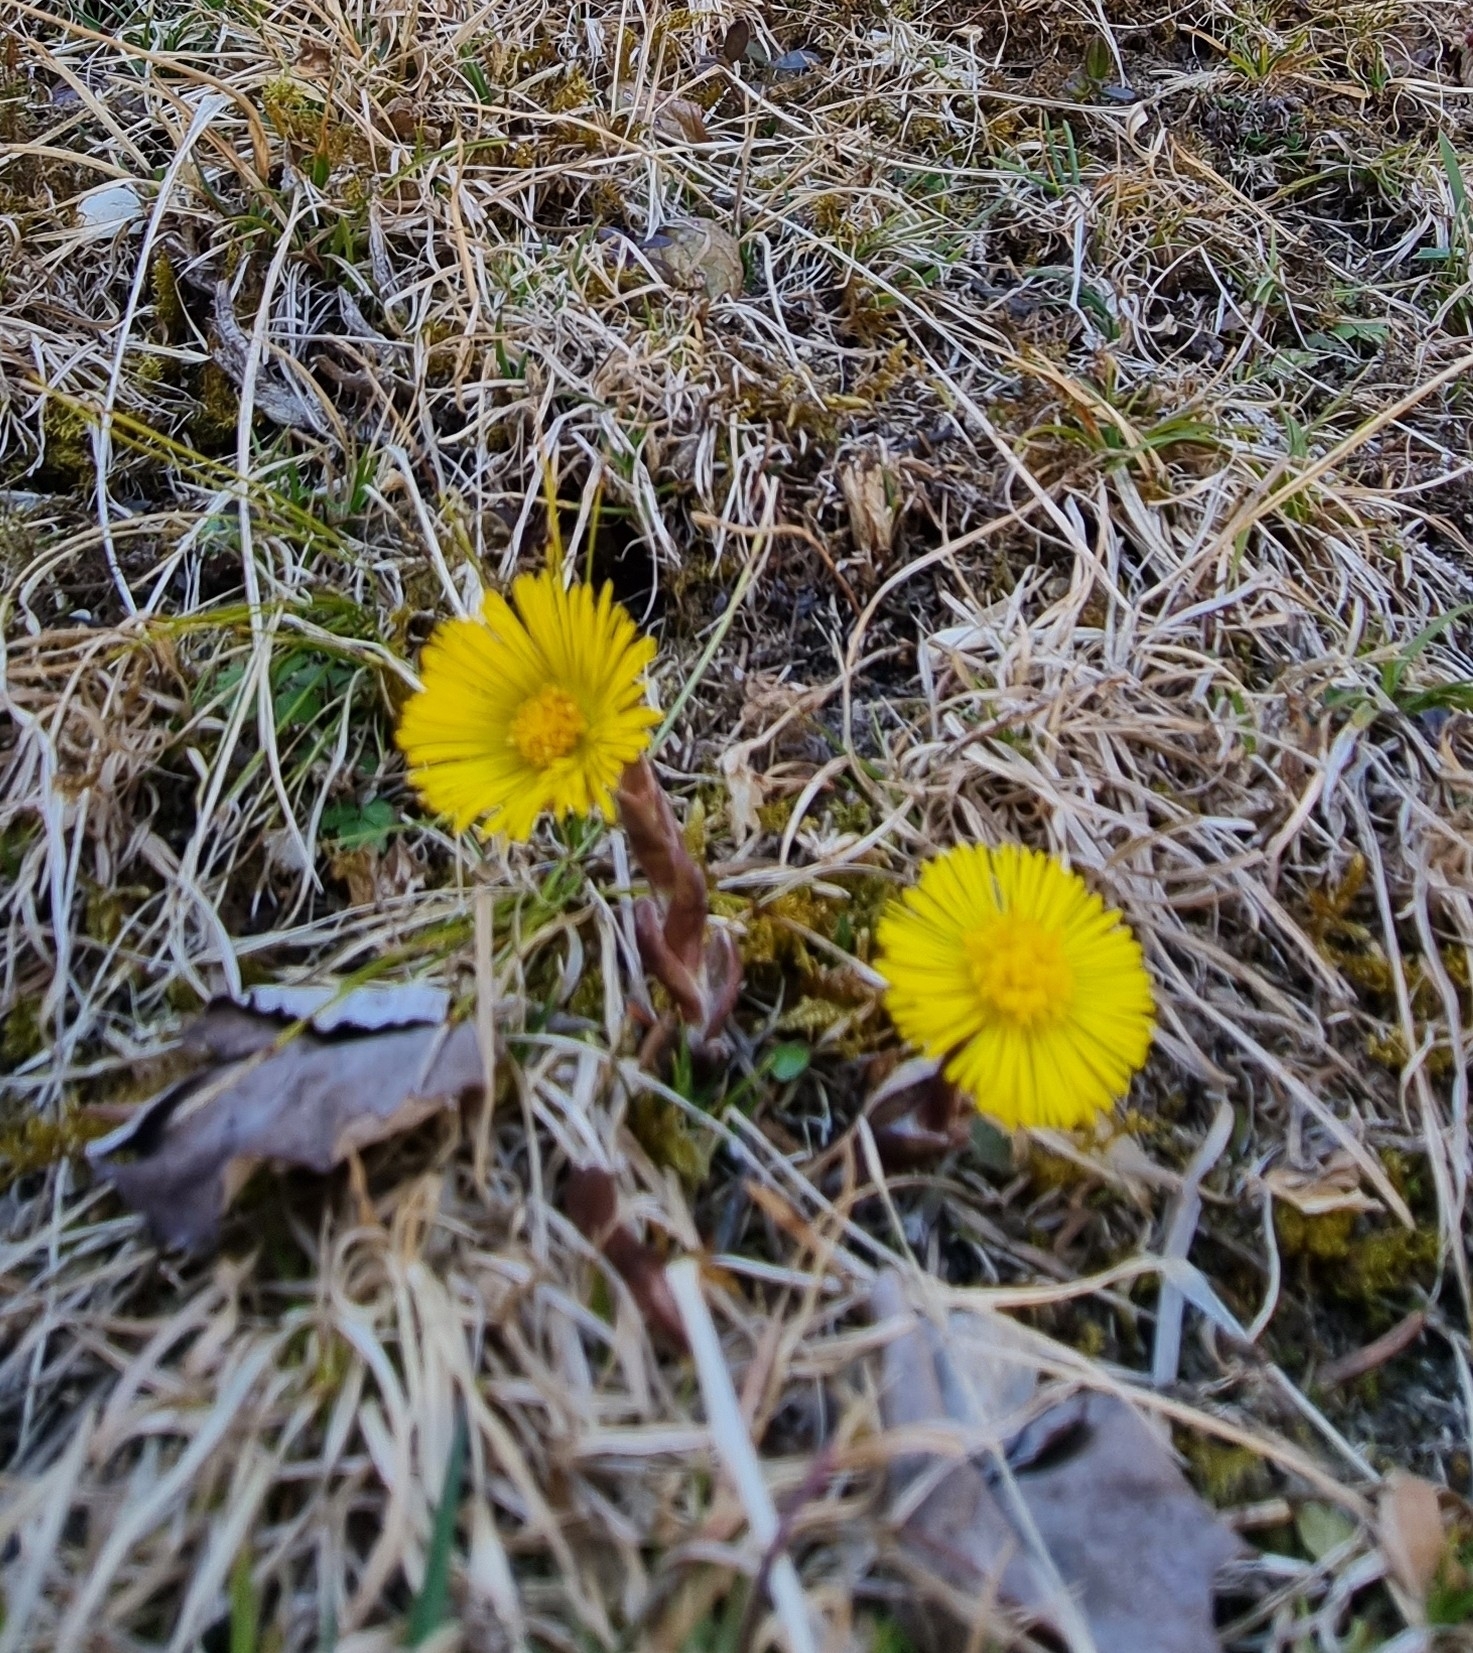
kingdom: Plantae
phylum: Tracheophyta
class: Magnoliopsida
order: Asterales
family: Asteraceae
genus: Tussilago
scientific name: Tussilago farfara
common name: Coltsfoot
